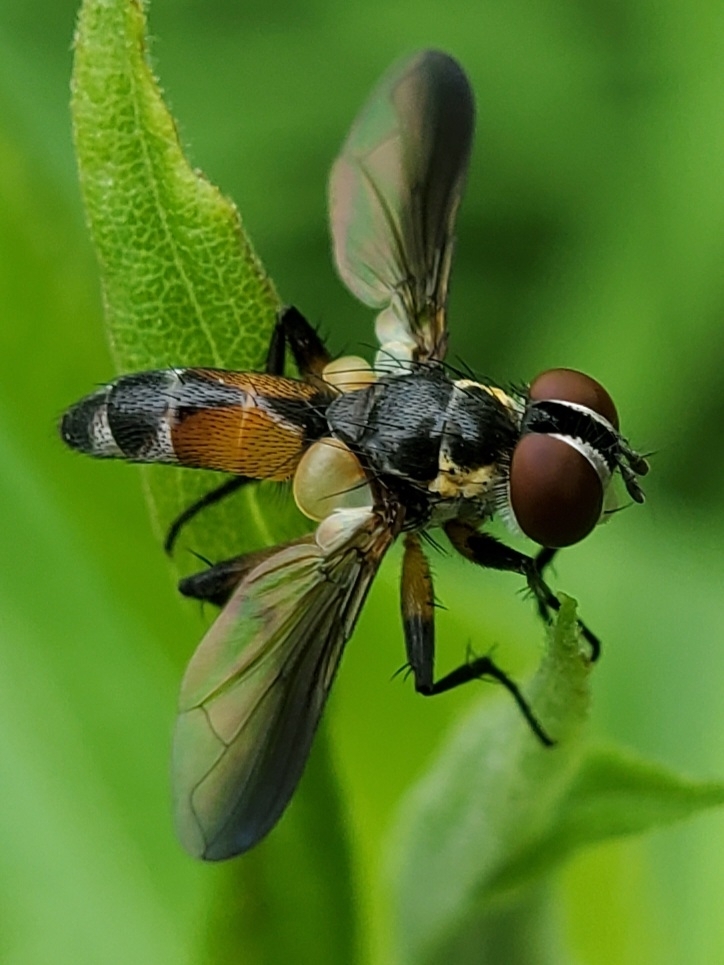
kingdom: Animalia
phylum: Arthropoda
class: Insecta
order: Diptera
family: Tachinidae
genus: Xanthomelanodes
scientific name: Xanthomelanodes arcuatus
